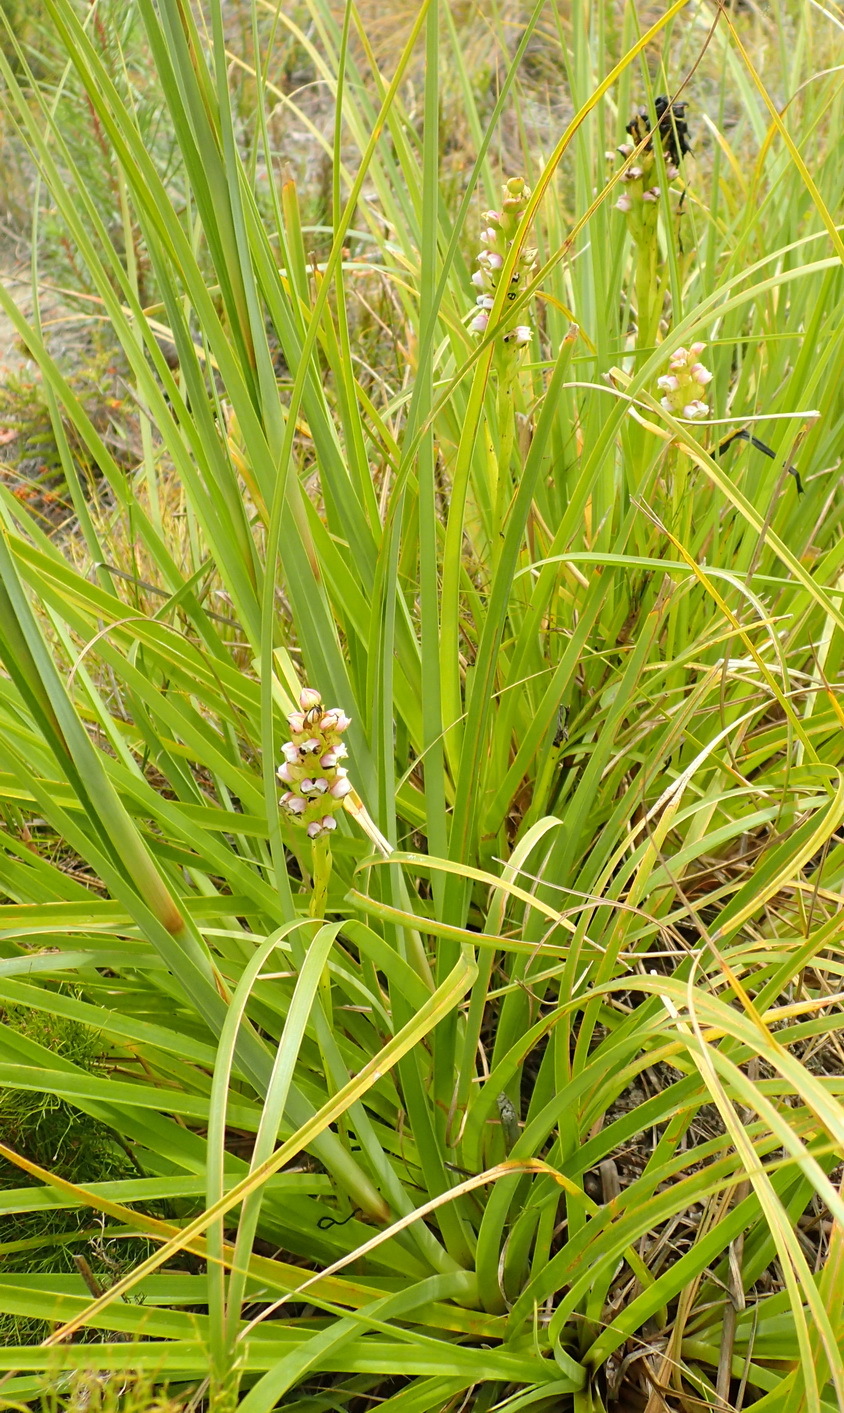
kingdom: Plantae
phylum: Tracheophyta
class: Liliopsida
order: Asparagales
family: Orchidaceae
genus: Evotella
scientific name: Evotella carnosa
